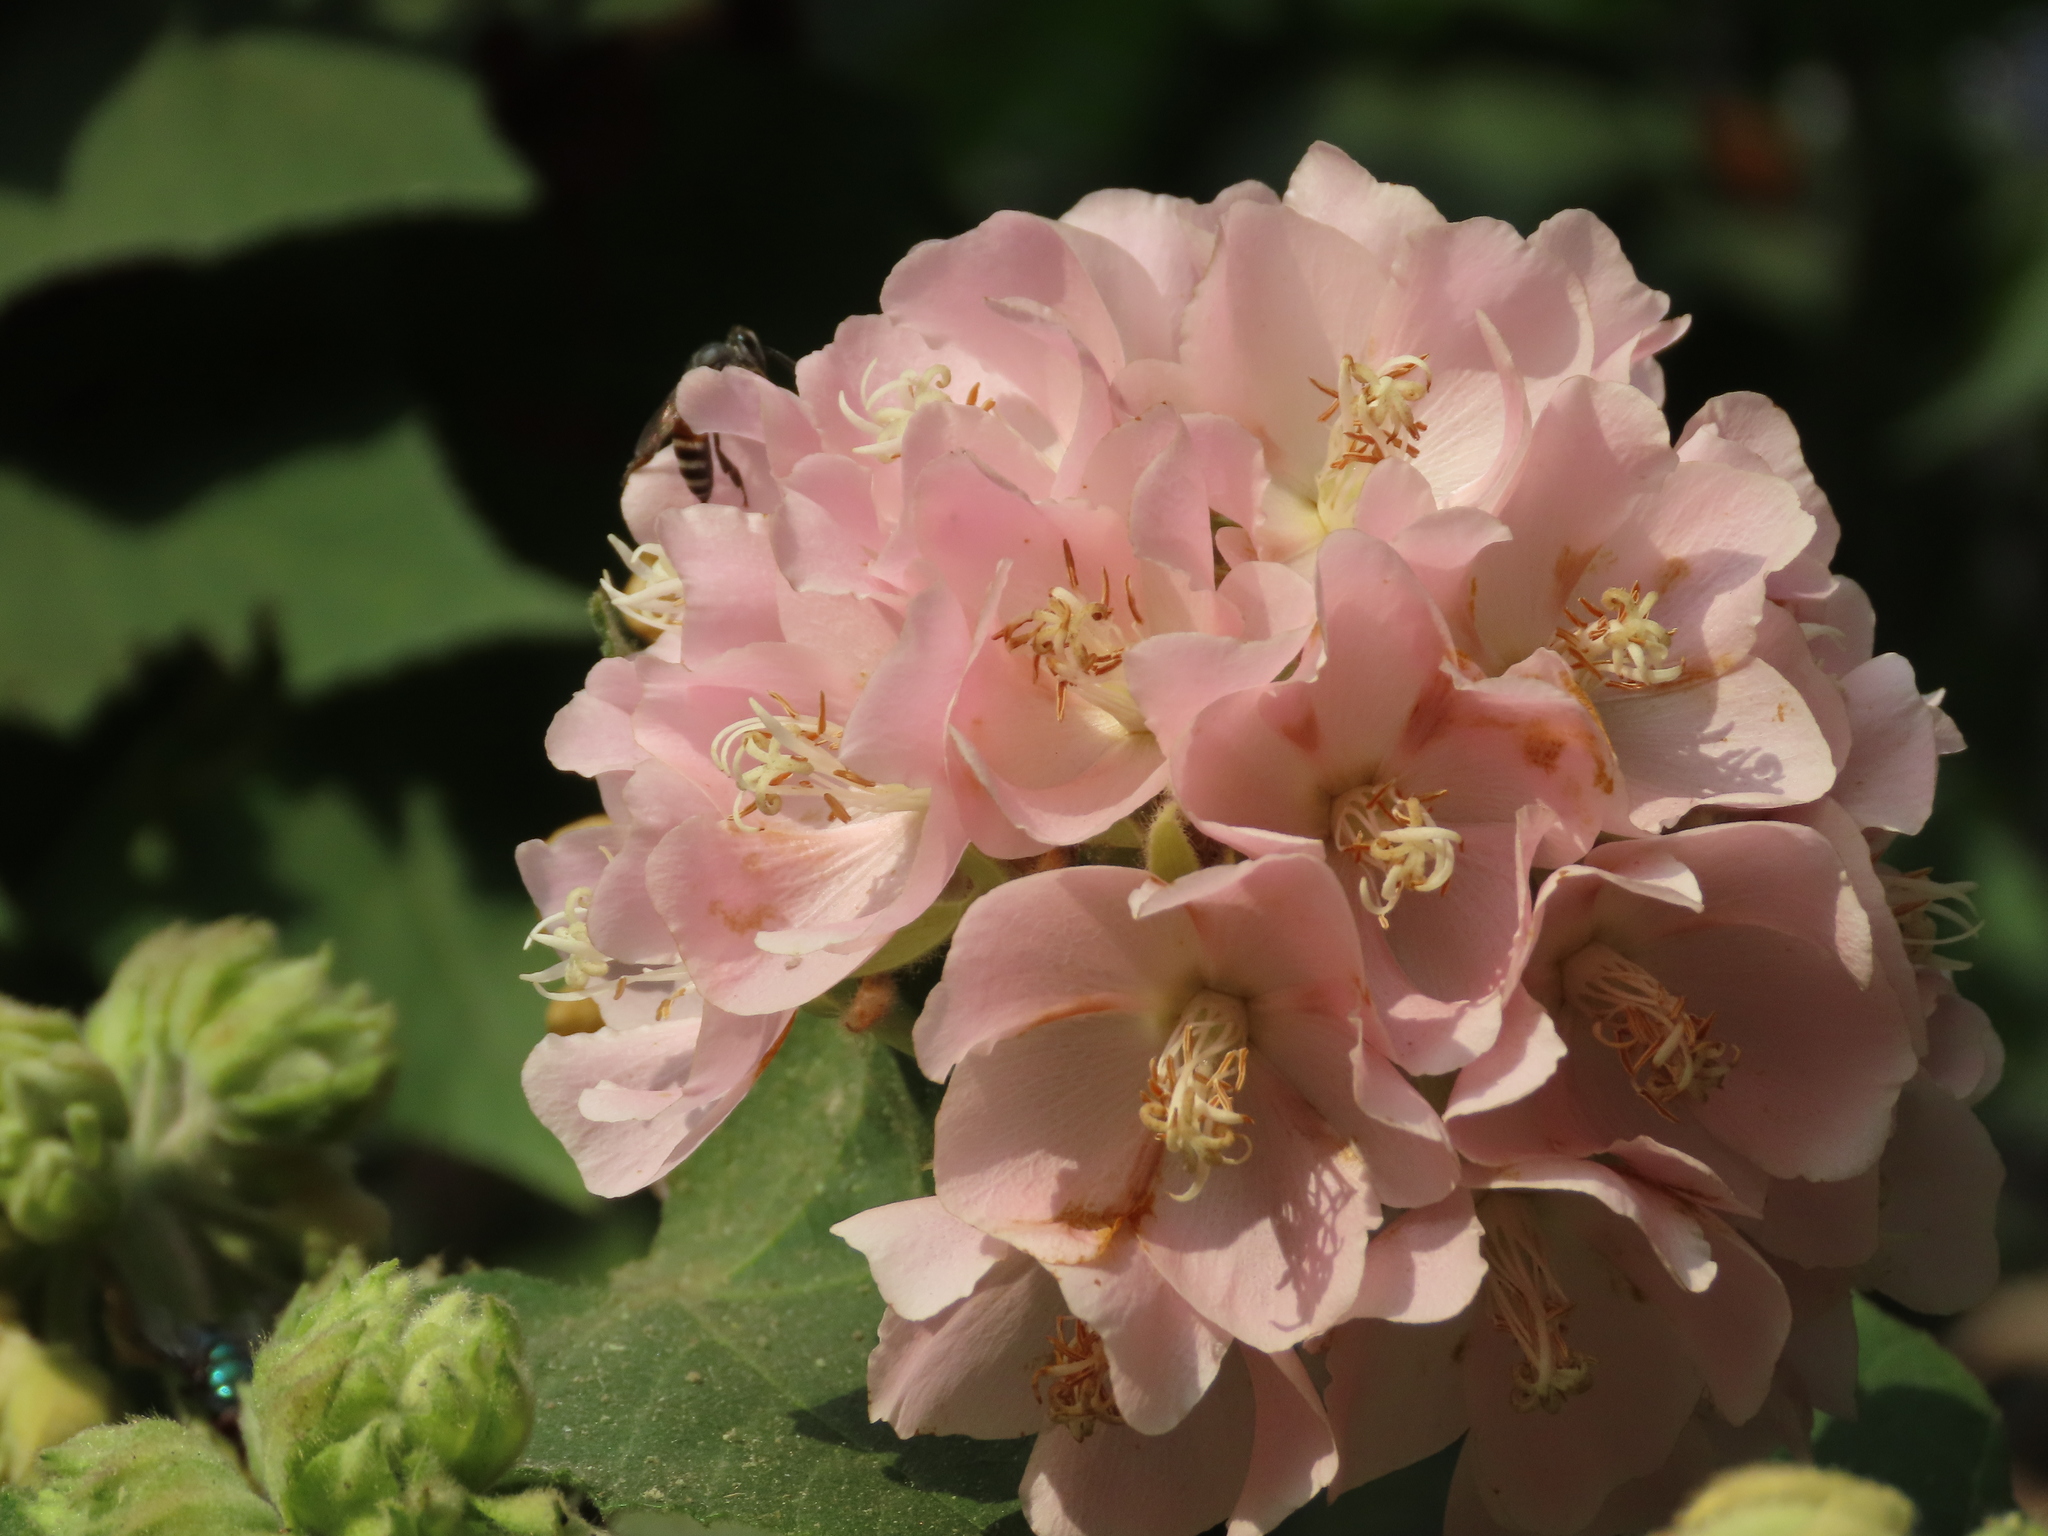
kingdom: Animalia
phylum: Arthropoda
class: Insecta
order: Hymenoptera
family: Apidae
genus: Apis
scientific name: Apis florea
